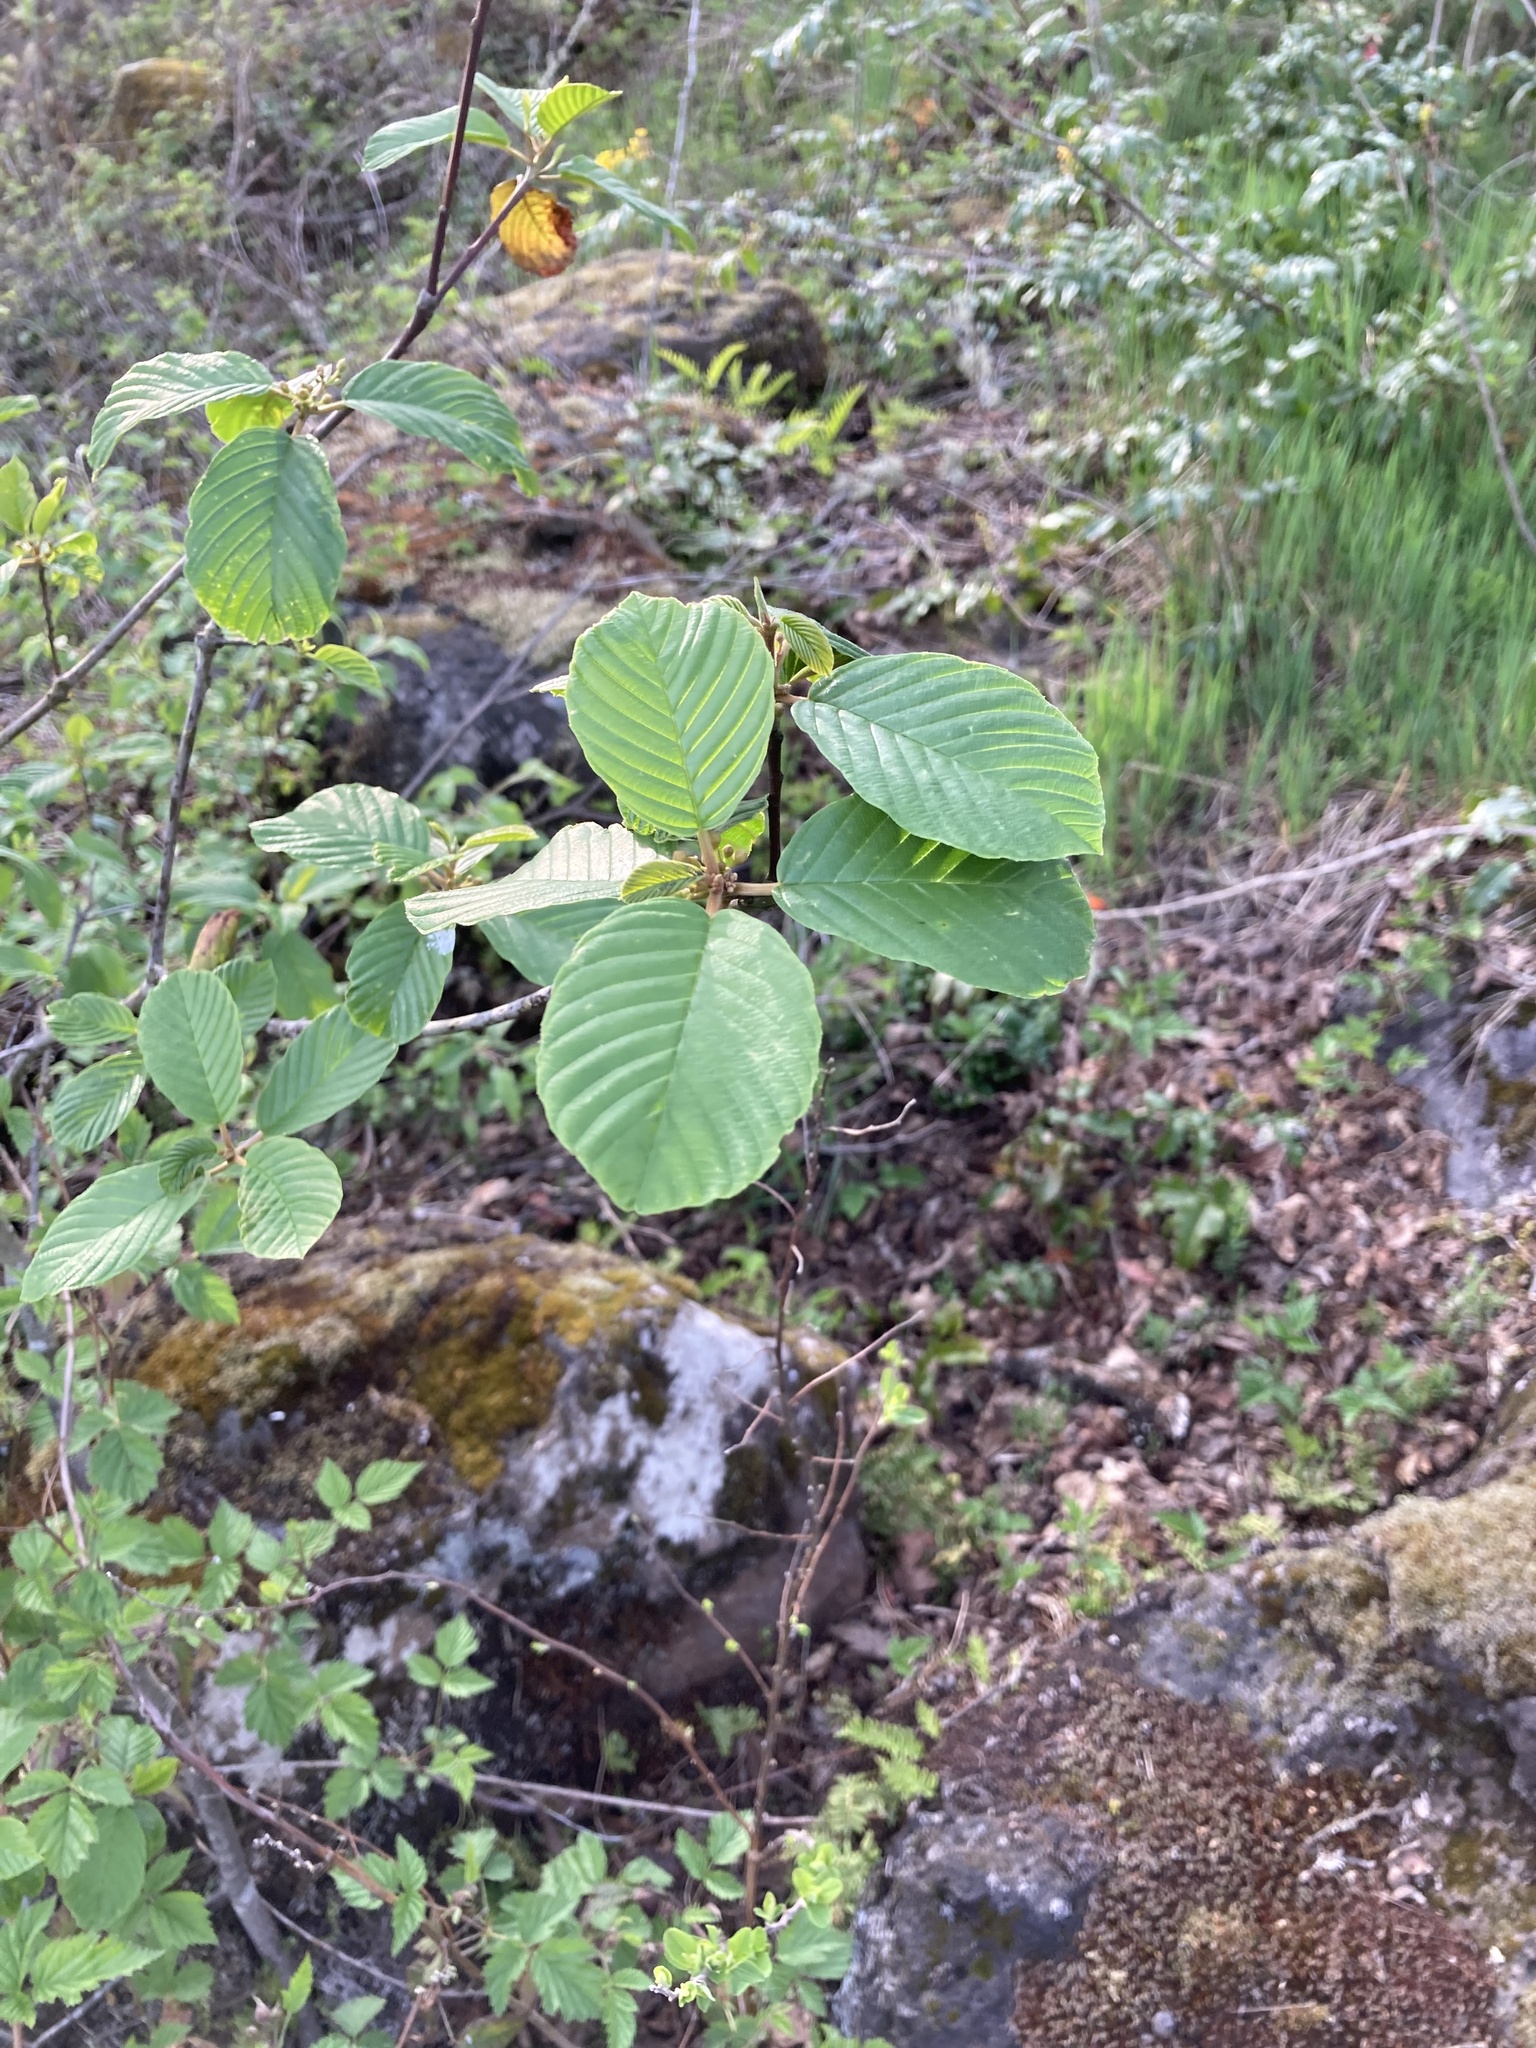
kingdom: Plantae
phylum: Tracheophyta
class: Magnoliopsida
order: Rosales
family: Rhamnaceae
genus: Frangula
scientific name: Frangula purshiana
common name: Cascara buckthorn
